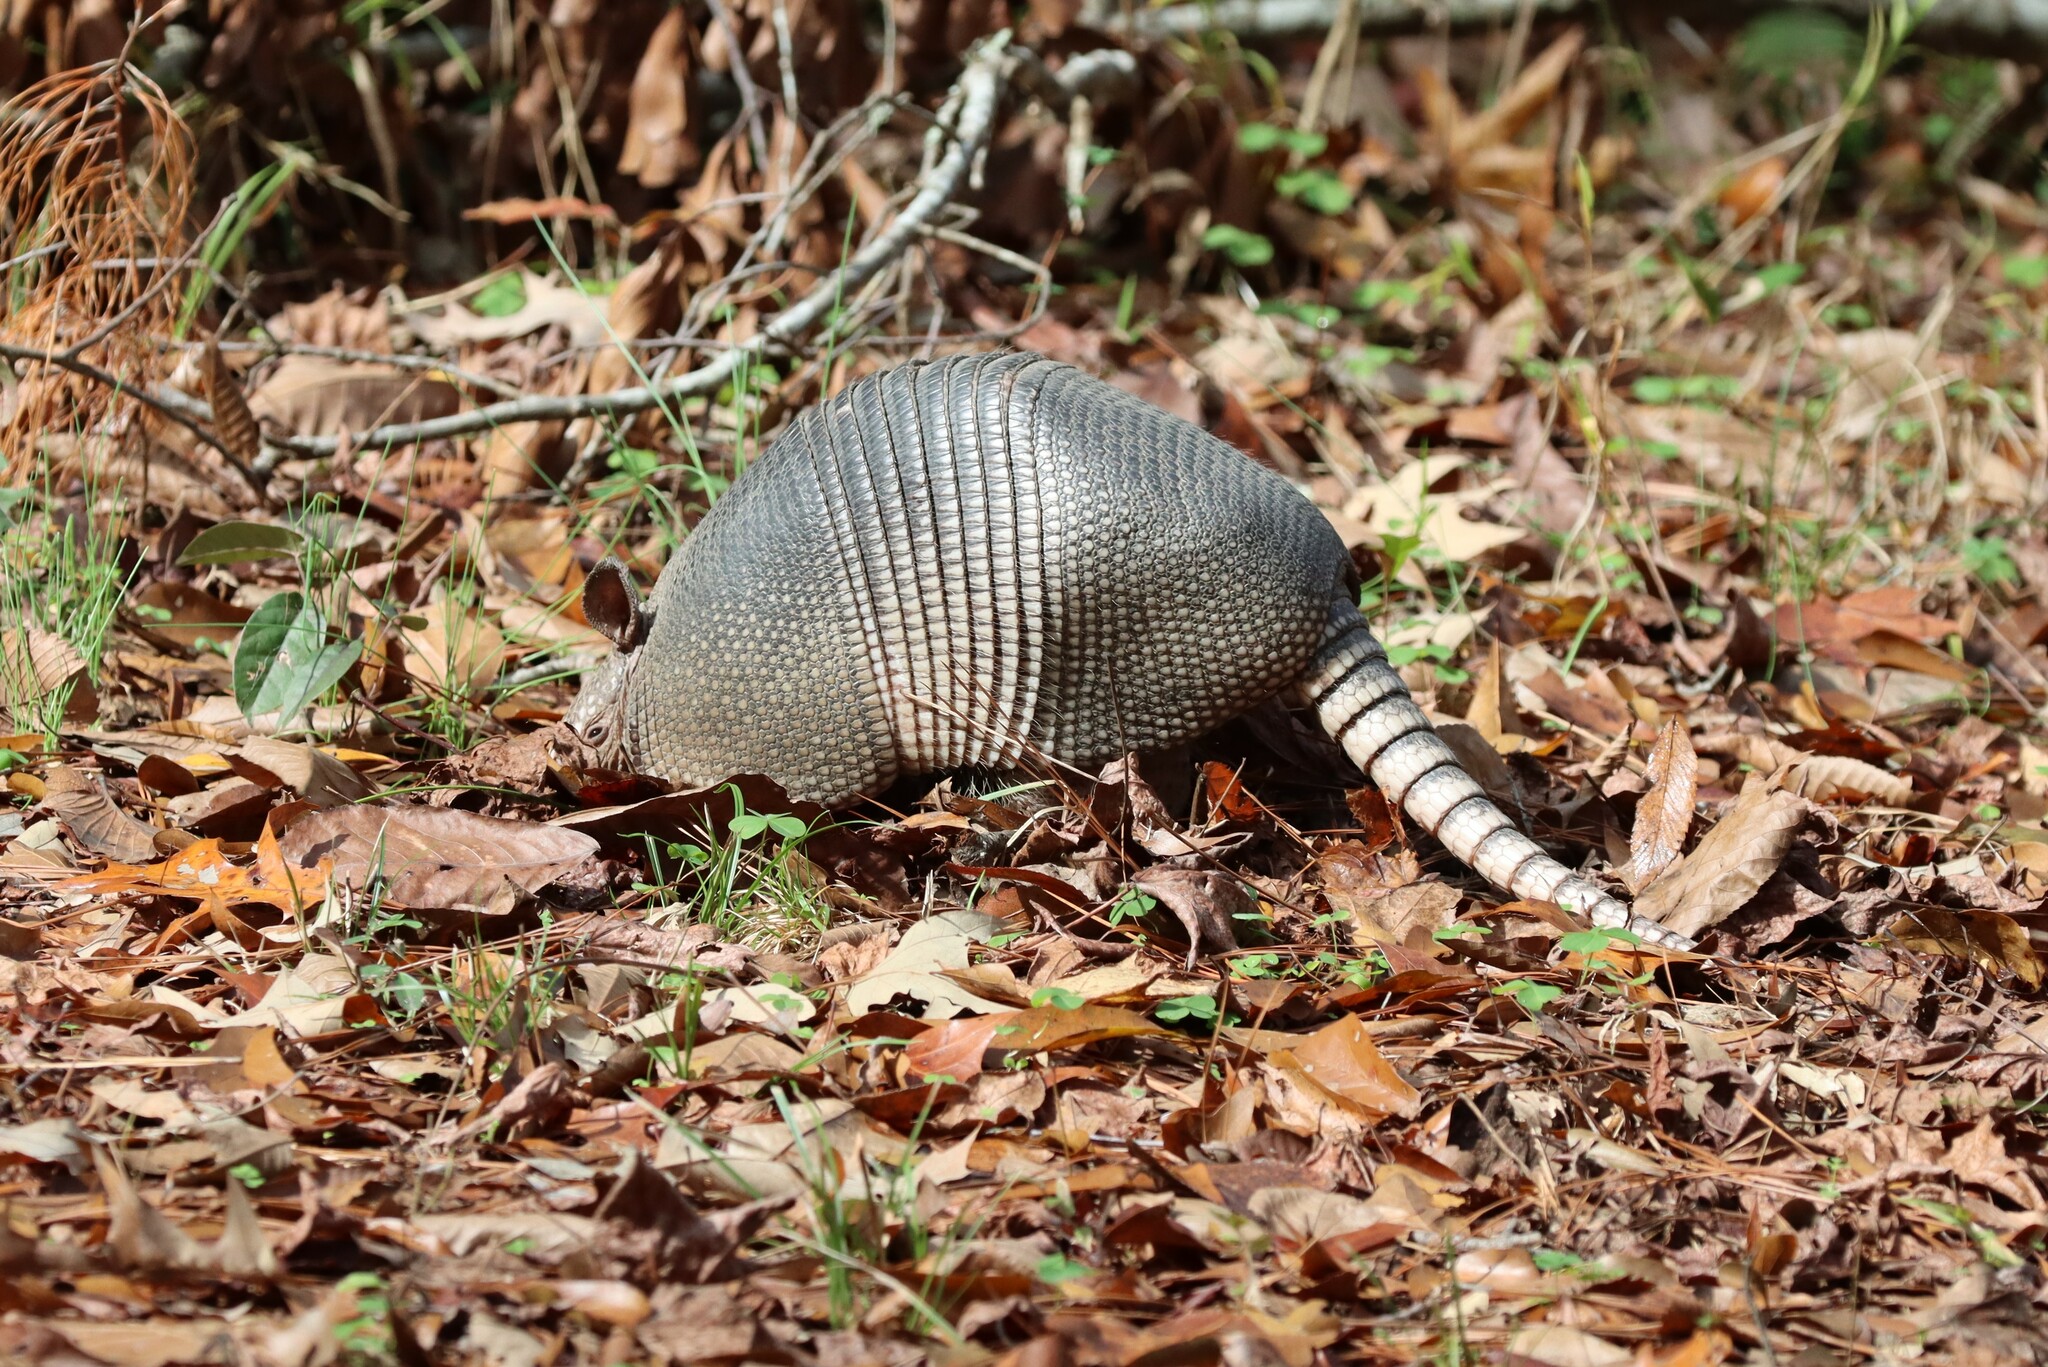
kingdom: Animalia
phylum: Chordata
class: Mammalia
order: Cingulata
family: Dasypodidae
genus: Dasypus
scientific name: Dasypus novemcinctus
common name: Nine-banded armadillo
